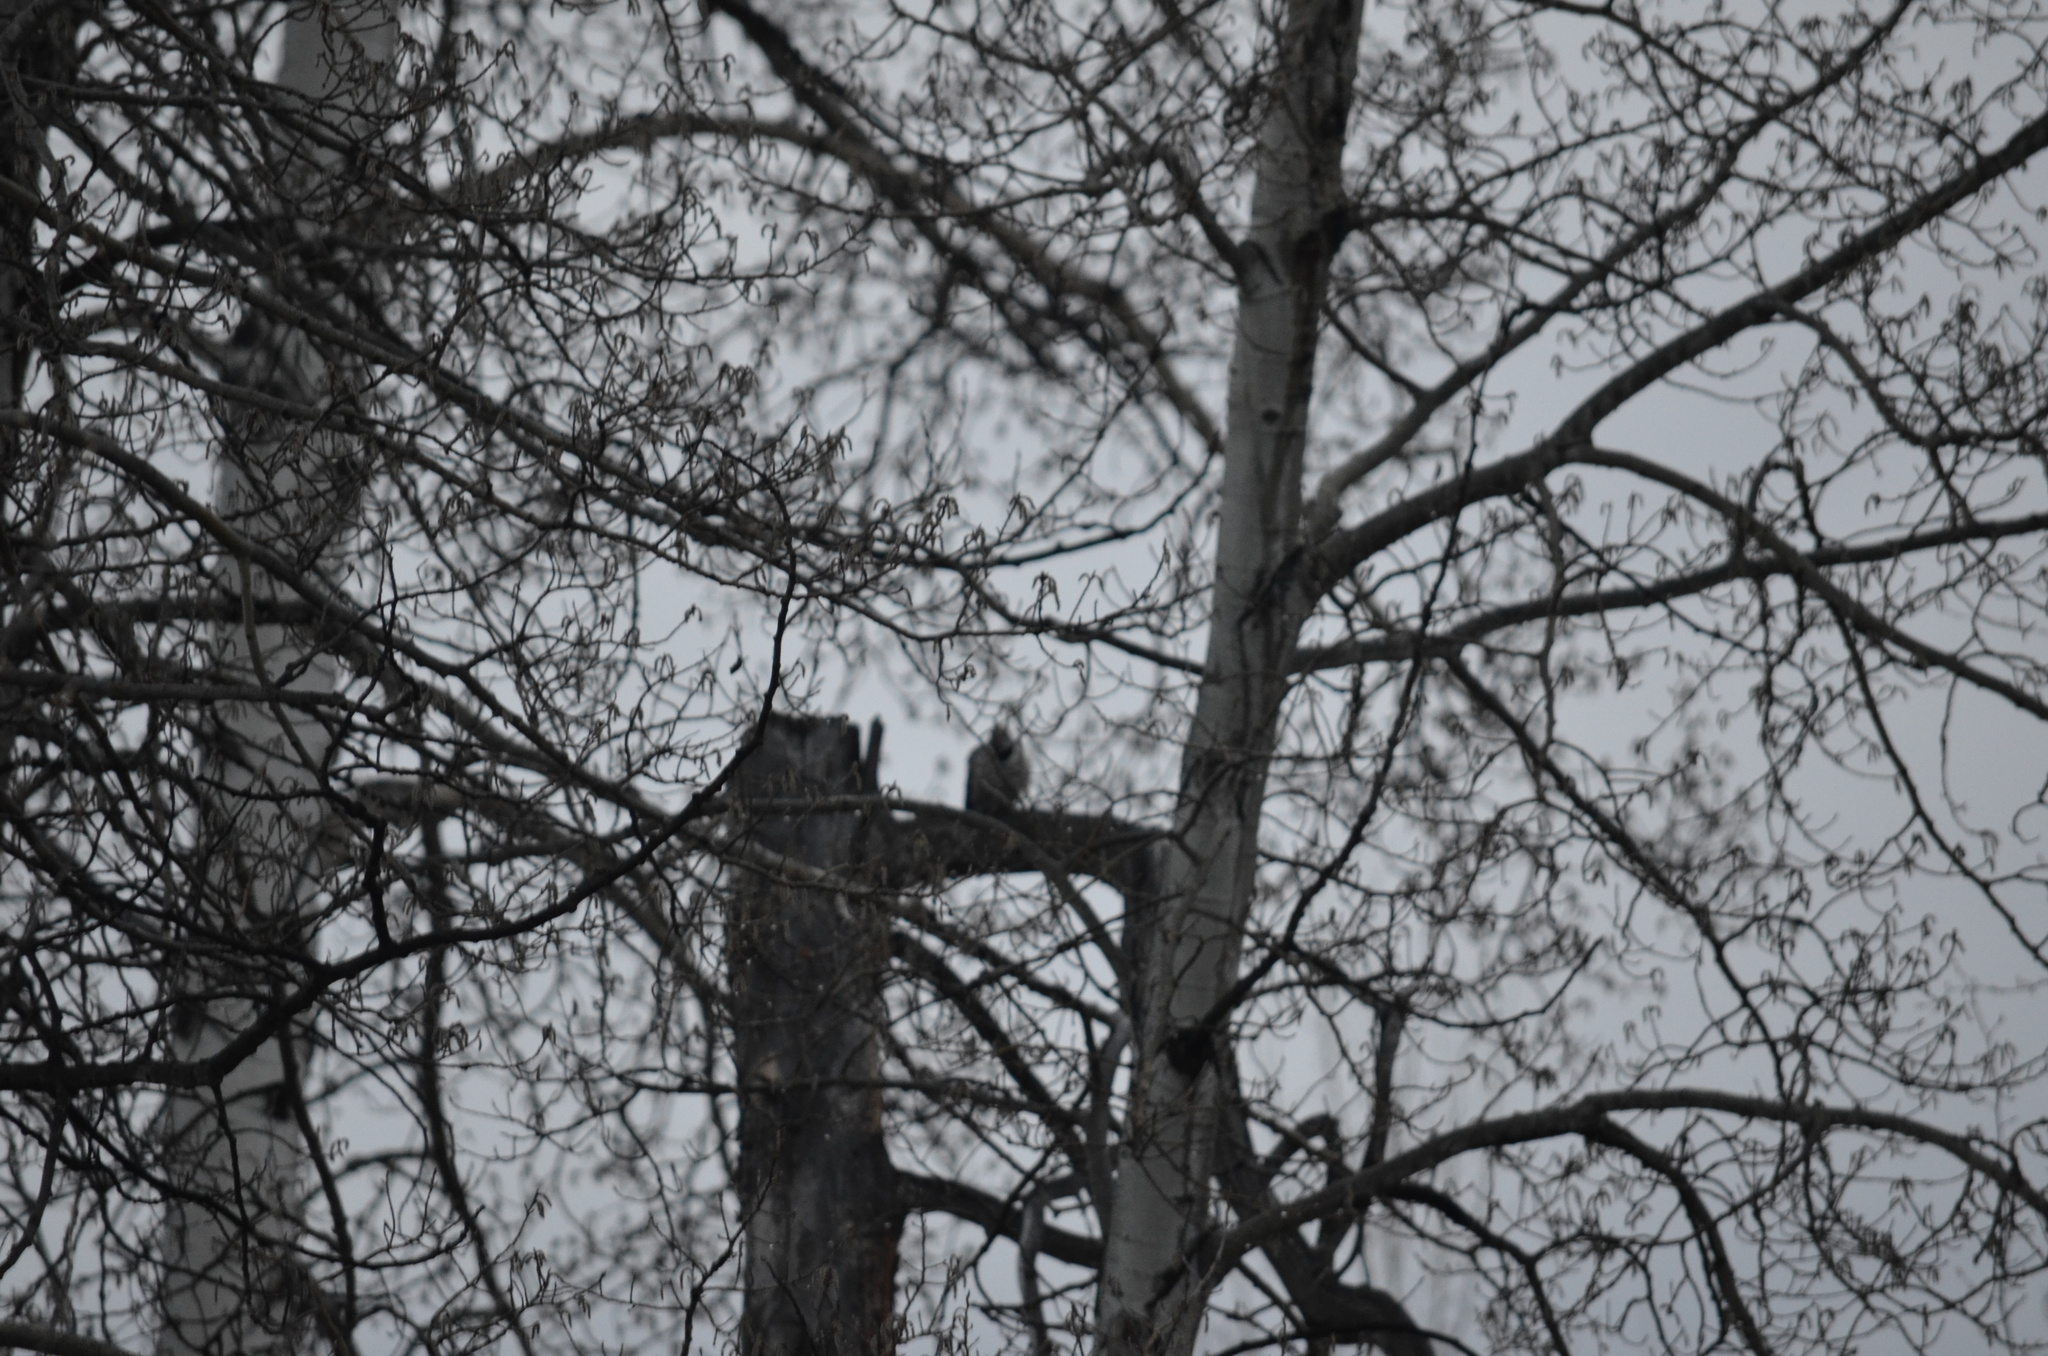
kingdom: Animalia
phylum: Chordata
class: Aves
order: Piciformes
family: Picidae
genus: Colaptes
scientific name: Colaptes auratus
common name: Northern flicker
